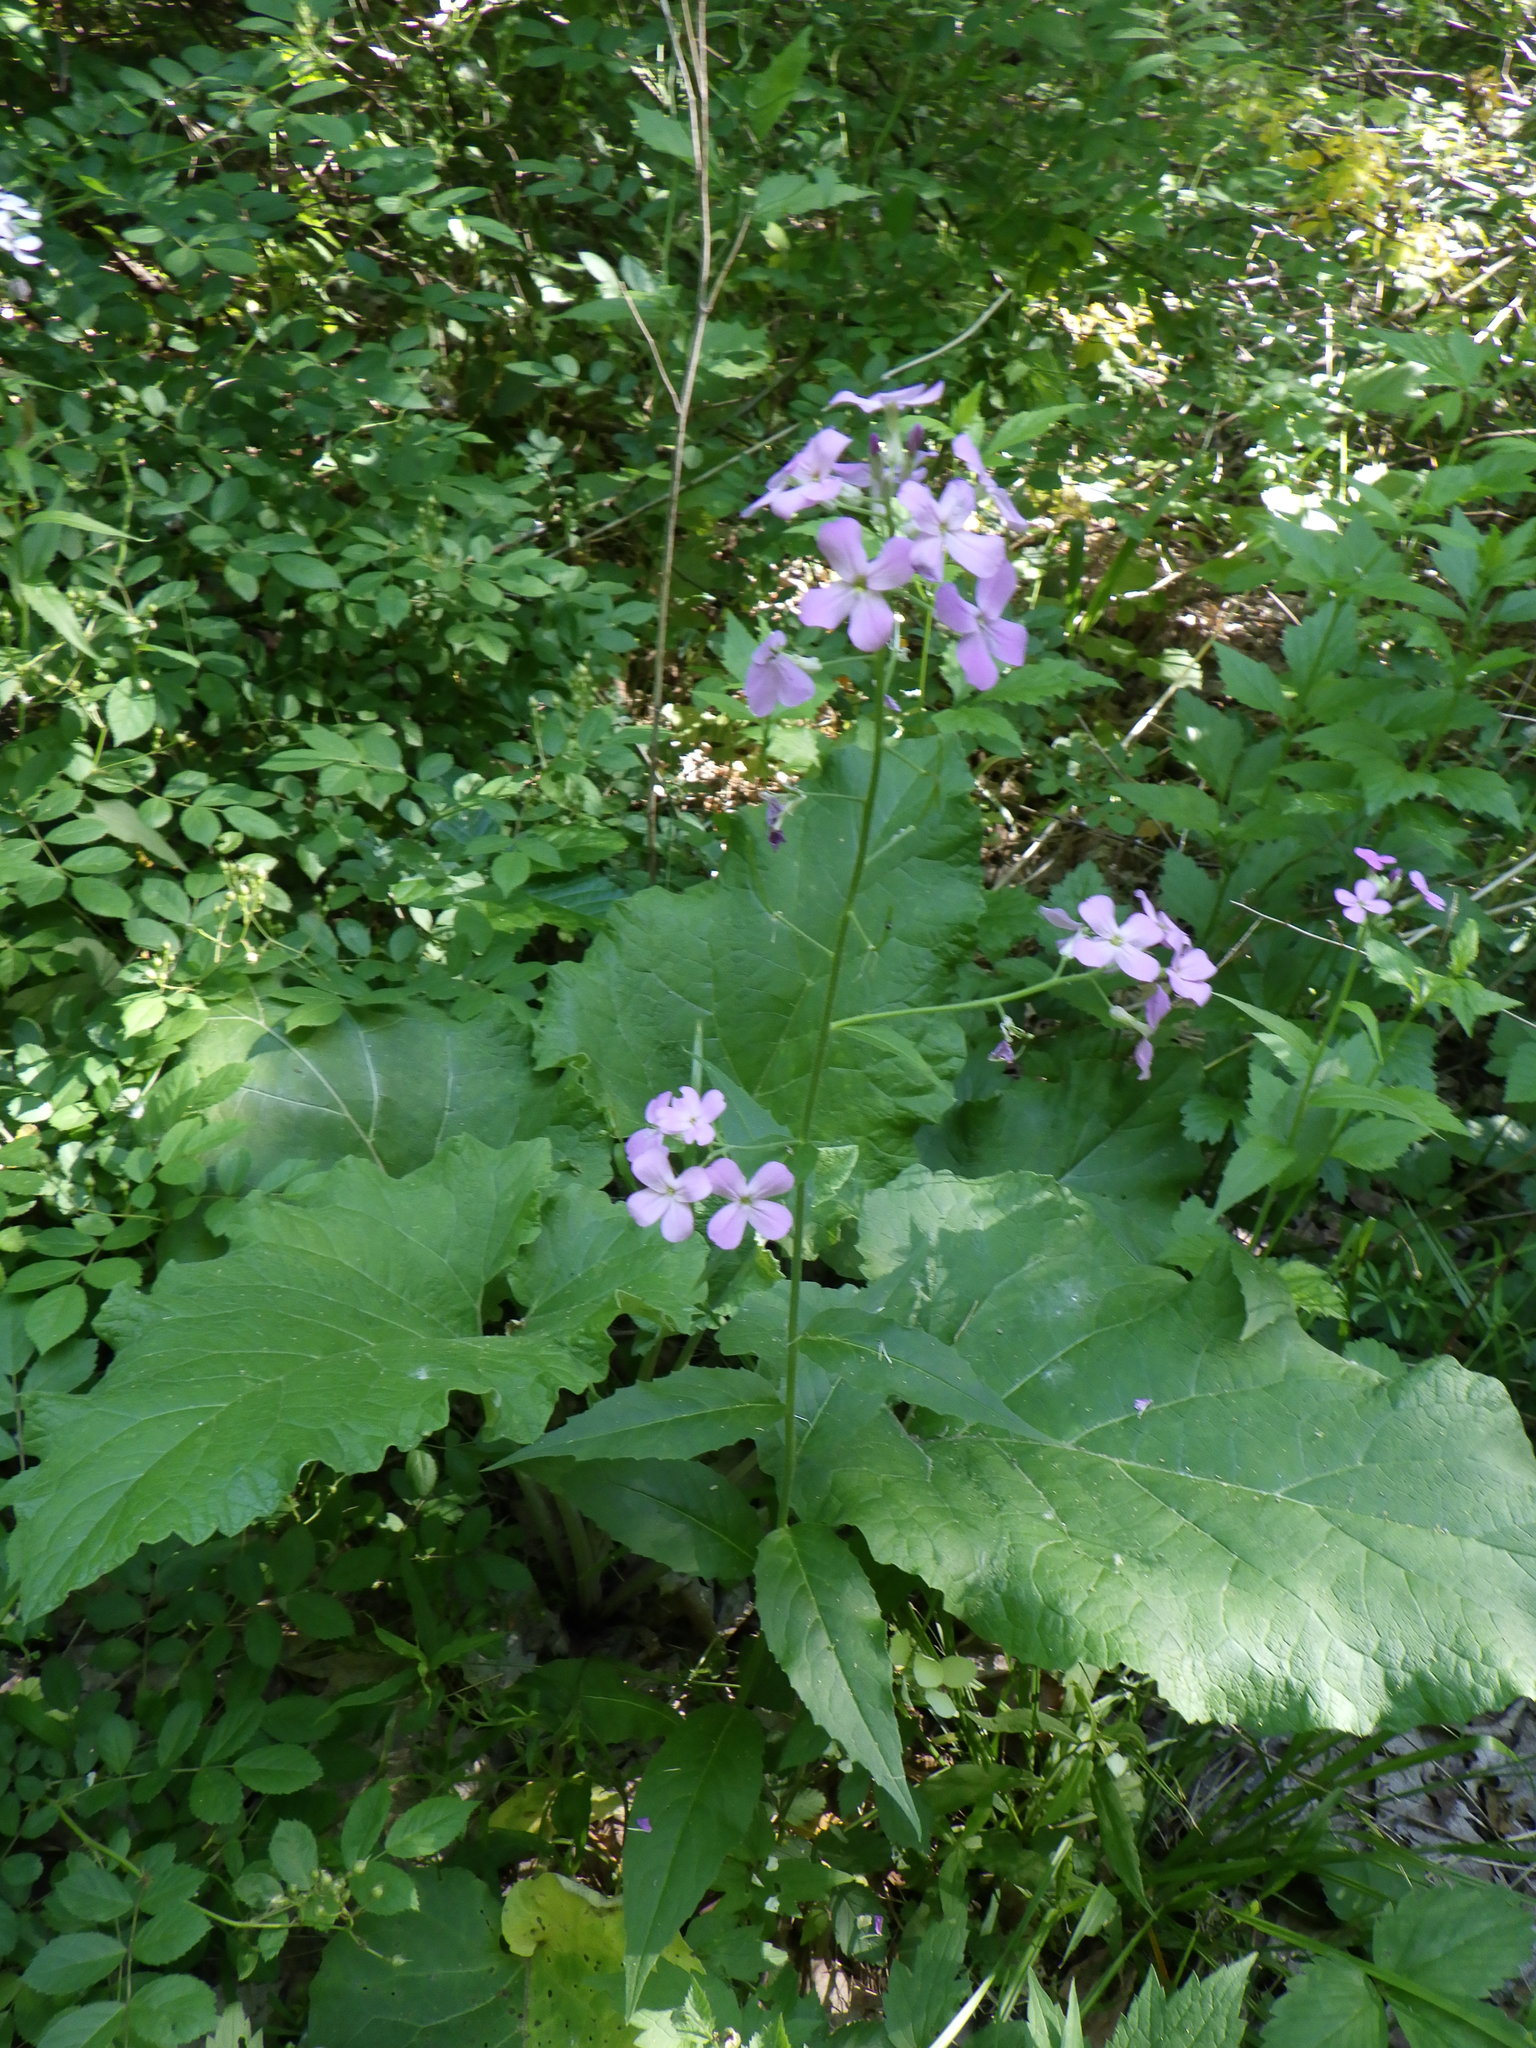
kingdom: Plantae
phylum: Tracheophyta
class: Magnoliopsida
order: Brassicales
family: Brassicaceae
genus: Hesperis
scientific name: Hesperis matronalis
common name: Dame's-violet
